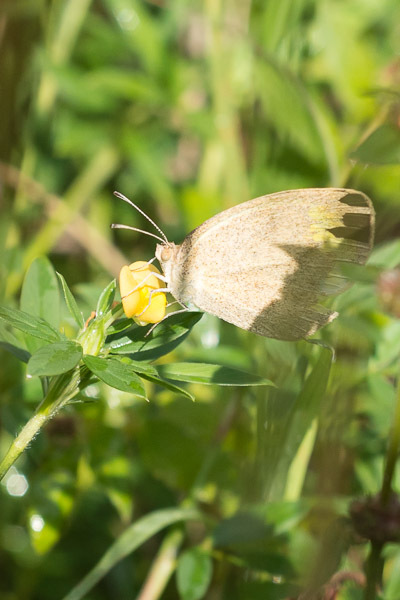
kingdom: Animalia
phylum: Arthropoda
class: Insecta
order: Lepidoptera
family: Pieridae
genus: Eurema
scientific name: Eurema daira
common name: Barred sulphur
